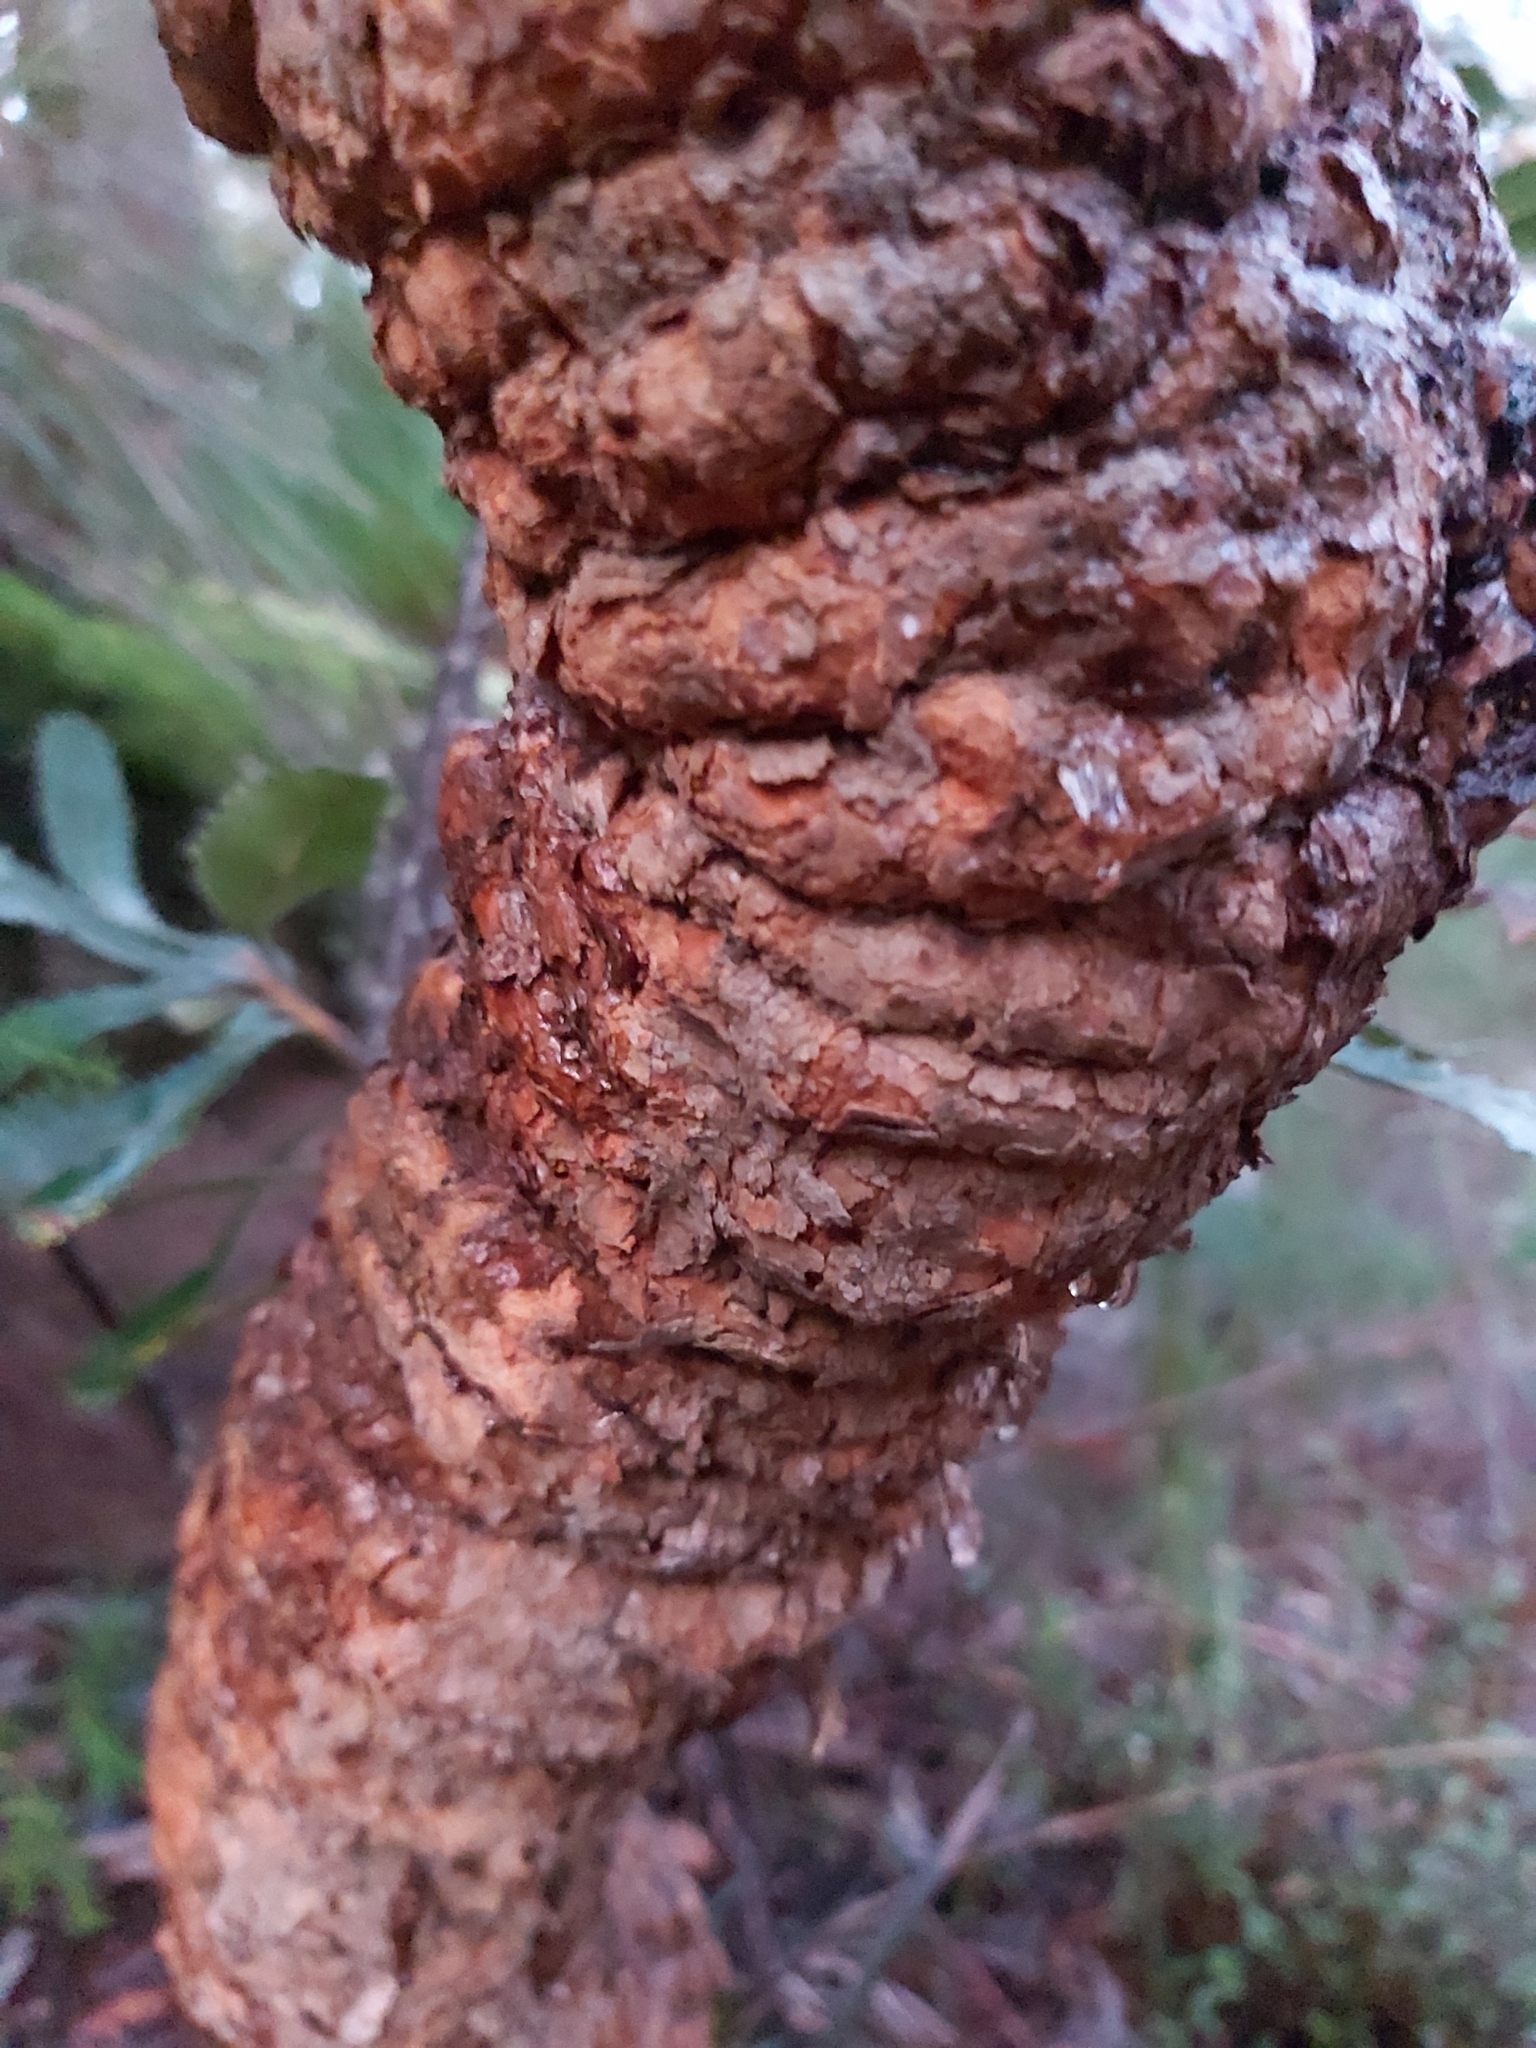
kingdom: Plantae
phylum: Tracheophyta
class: Magnoliopsida
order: Proteales
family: Proteaceae
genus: Banksia
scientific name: Banksia serrata
